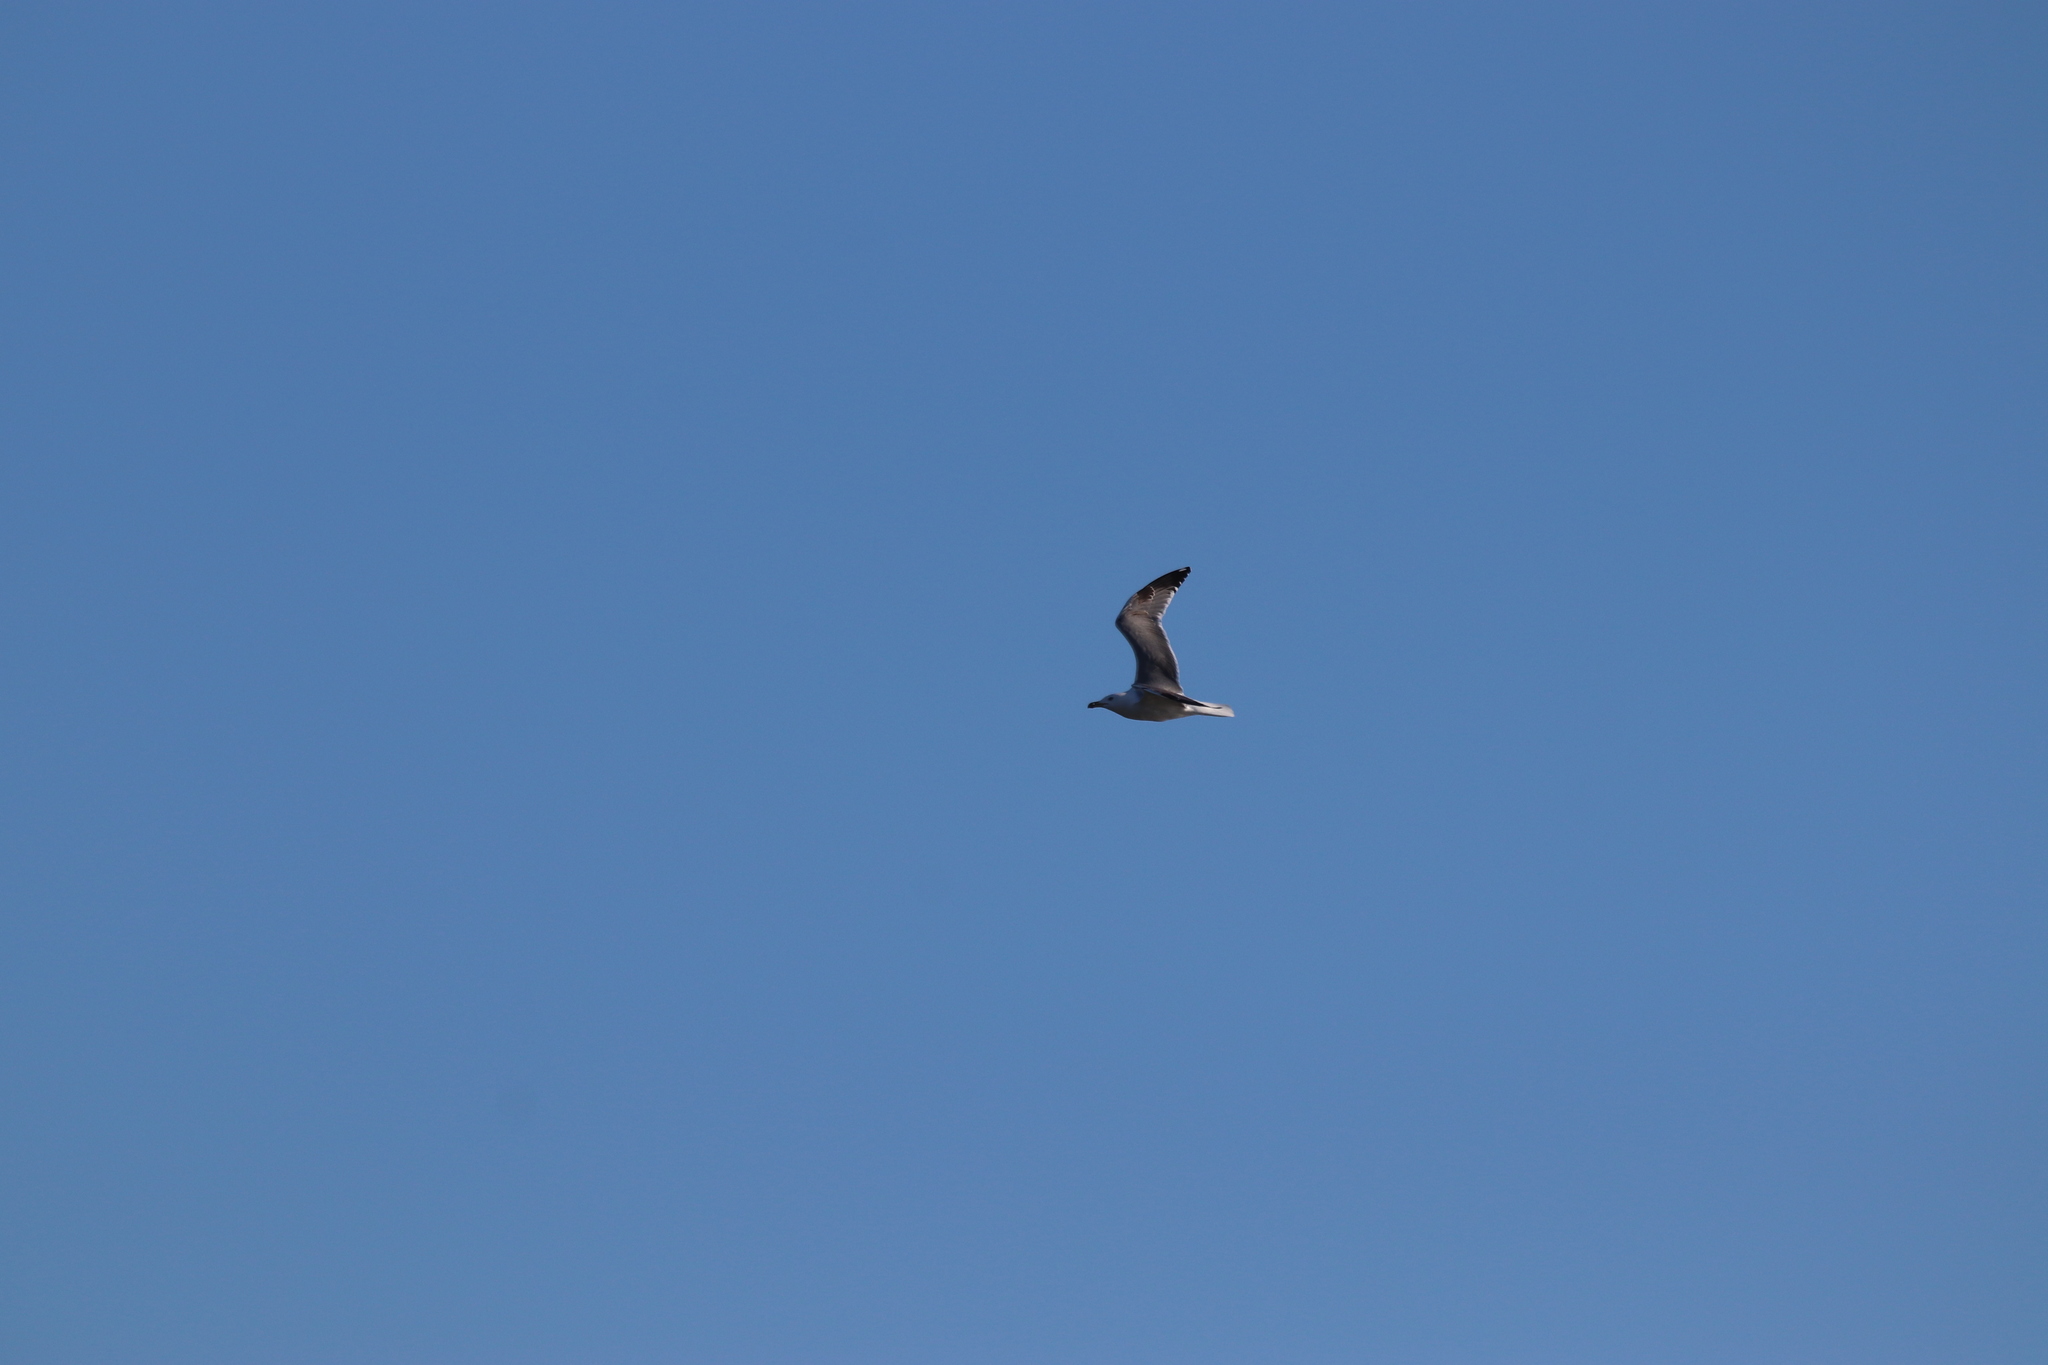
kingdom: Animalia
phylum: Chordata
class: Aves
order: Charadriiformes
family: Laridae
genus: Larus
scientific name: Larus michahellis
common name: Yellow-legged gull
